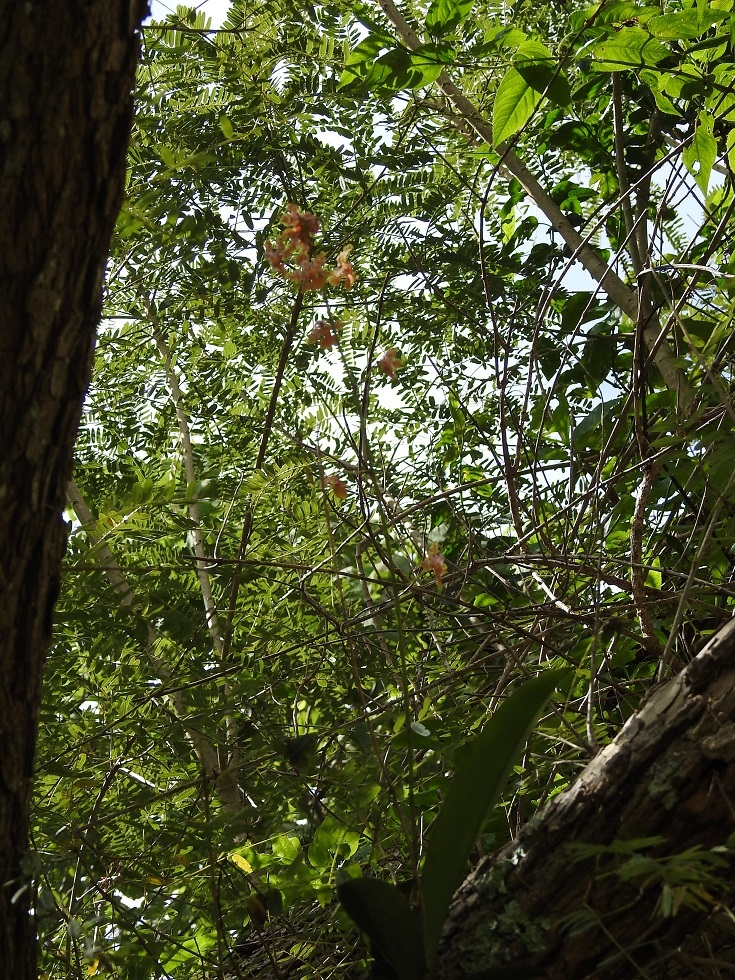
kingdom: Plantae
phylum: Tracheophyta
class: Liliopsida
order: Asparagales
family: Orchidaceae
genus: Trichocentrum
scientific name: Trichocentrum andreanum
